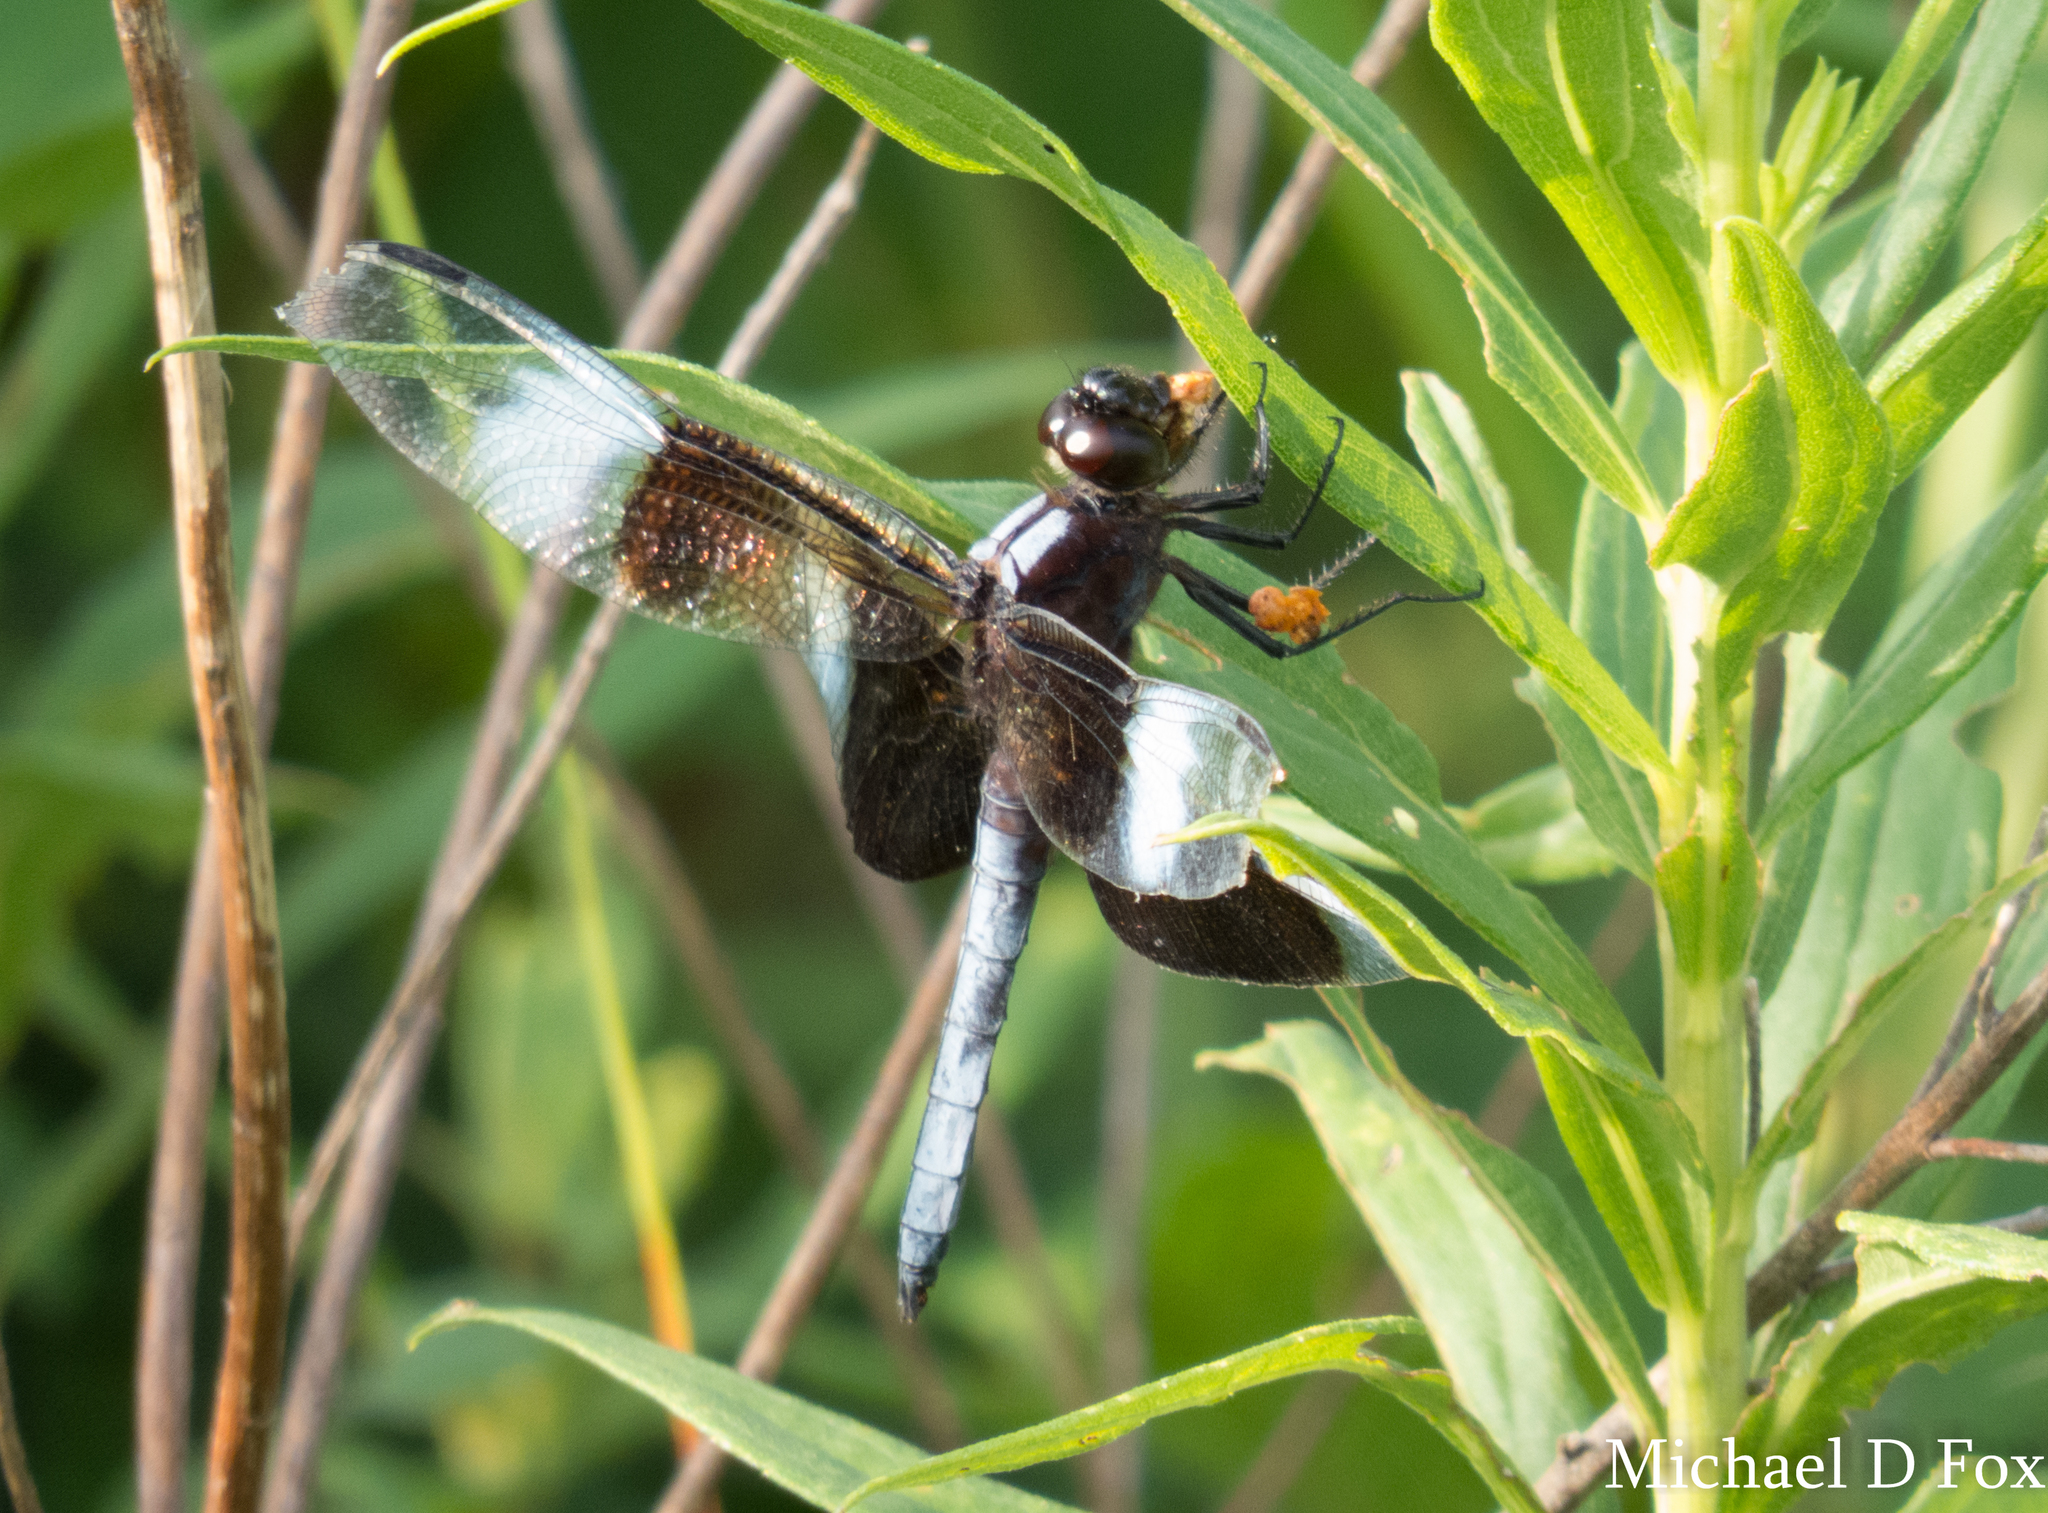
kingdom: Animalia
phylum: Arthropoda
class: Insecta
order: Odonata
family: Libellulidae
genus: Libellula
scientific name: Libellula luctuosa
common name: Widow skimmer
